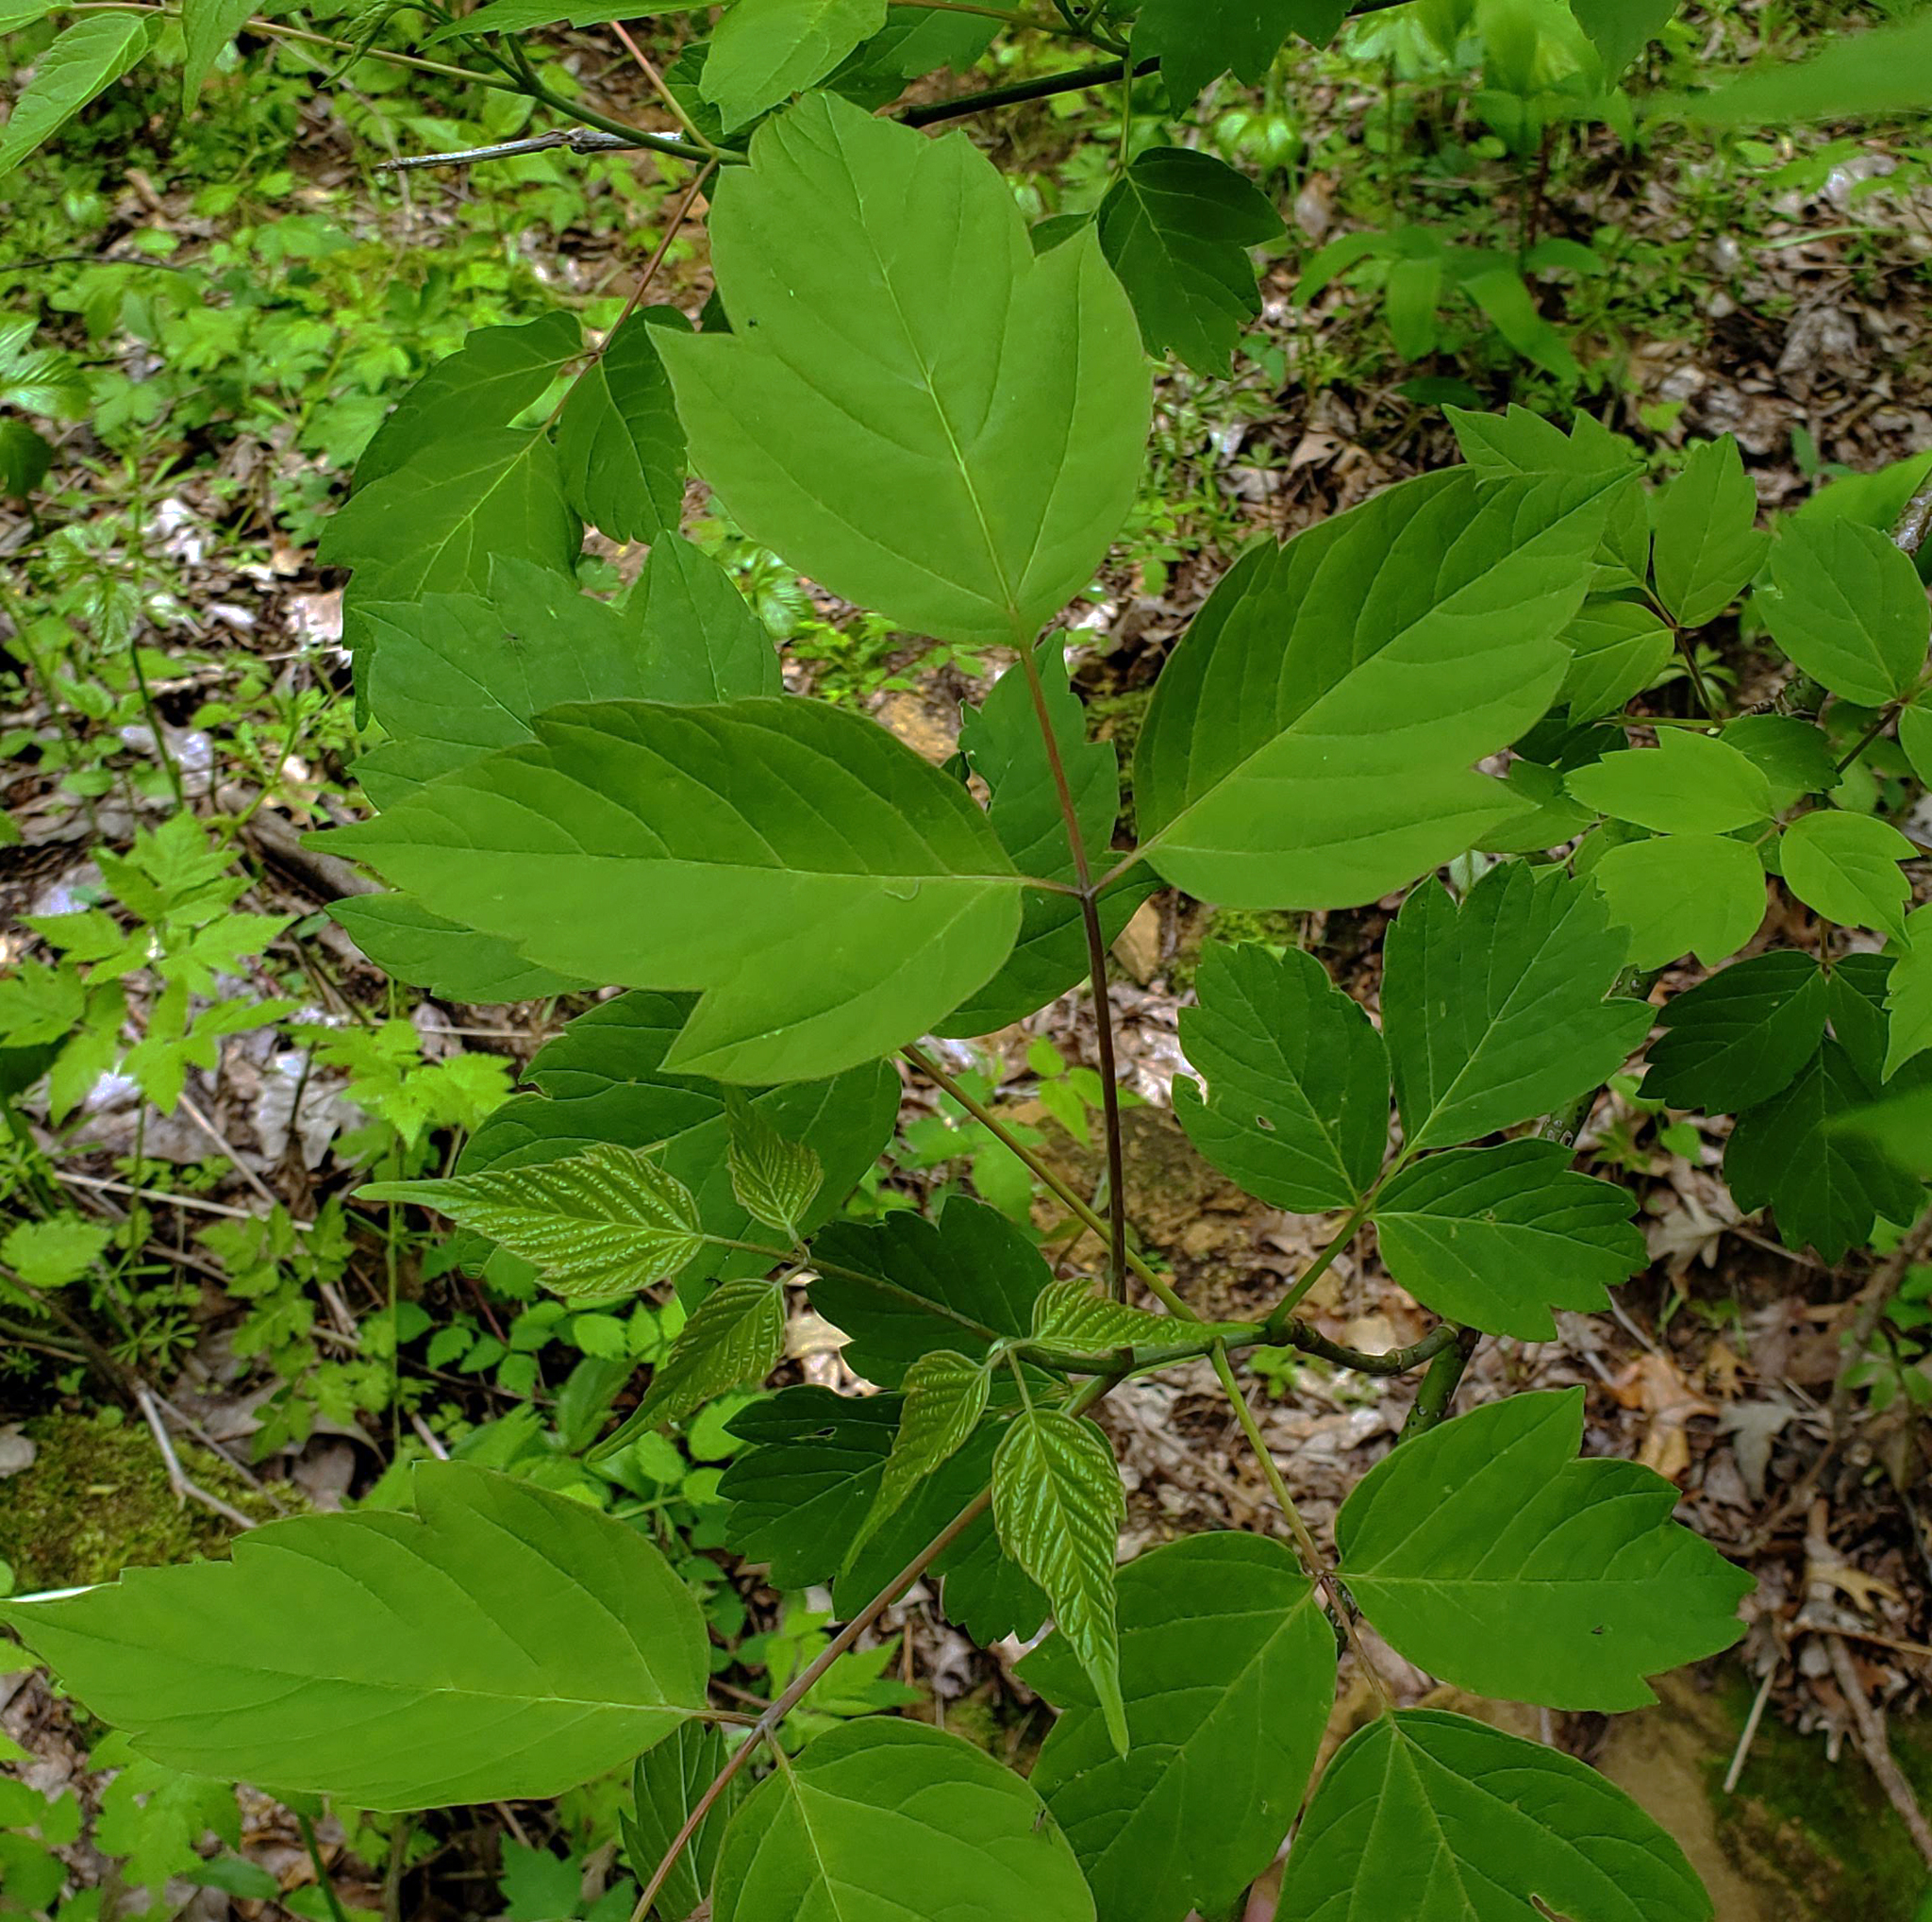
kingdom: Plantae
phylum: Tracheophyta
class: Magnoliopsida
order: Sapindales
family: Sapindaceae
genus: Acer
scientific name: Acer negundo
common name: Ashleaf maple
